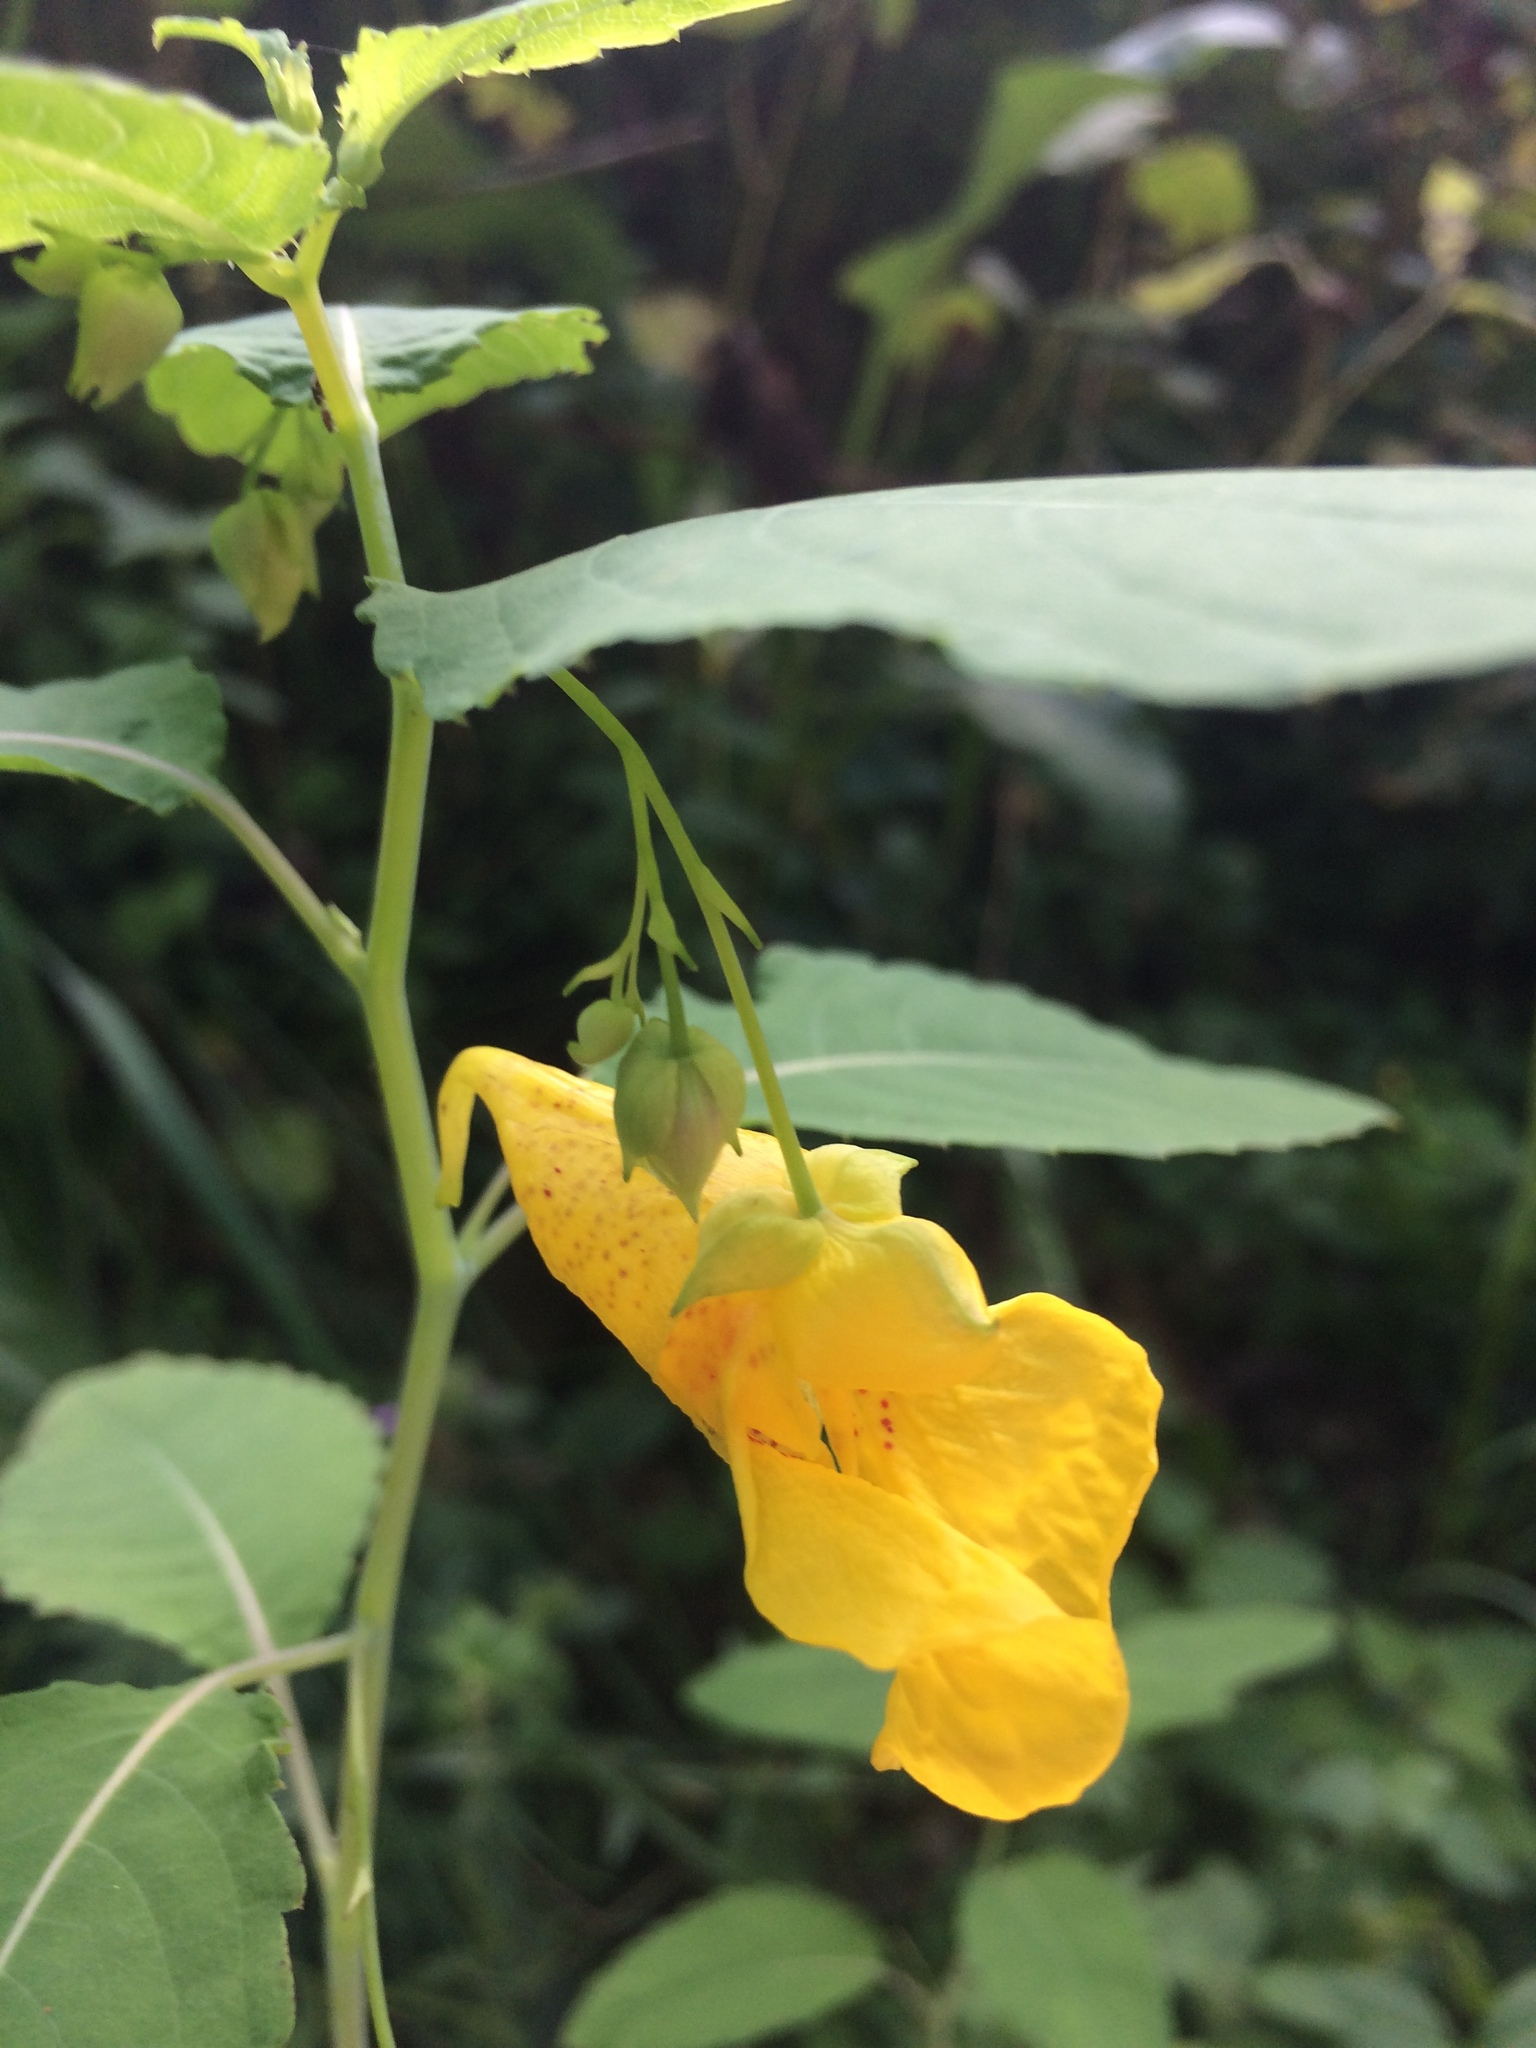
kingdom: Plantae
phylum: Tracheophyta
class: Magnoliopsida
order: Ericales
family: Balsaminaceae
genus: Impatiens
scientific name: Impatiens noli-tangere
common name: Touch-me-not balsam
